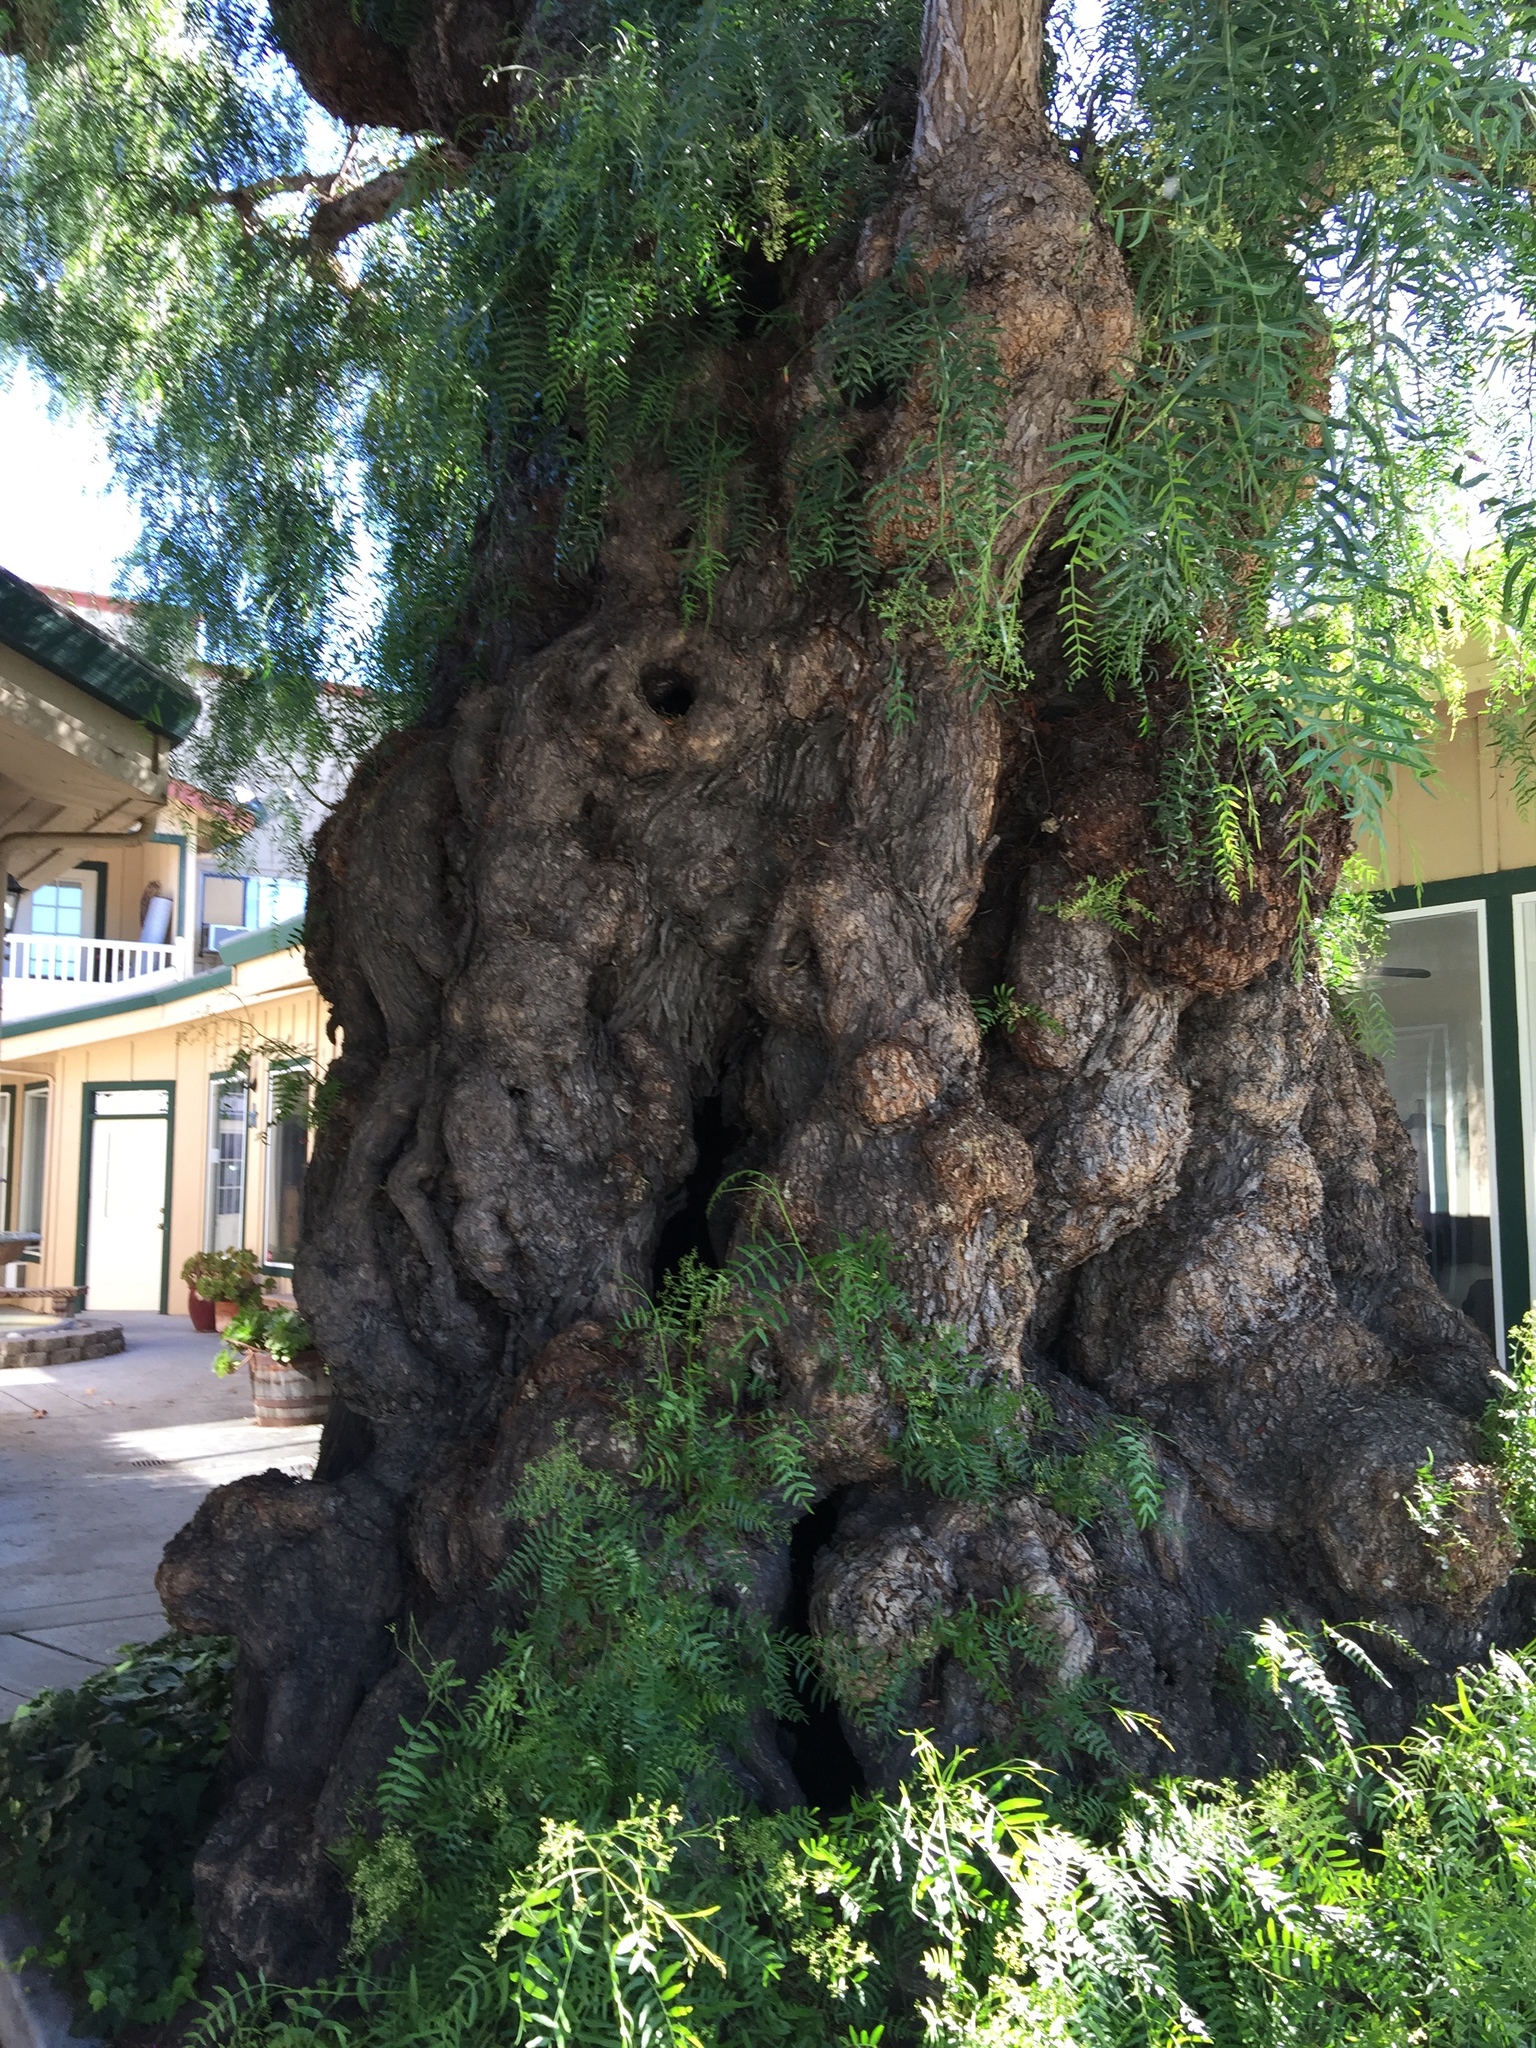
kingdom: Plantae
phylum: Tracheophyta
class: Magnoliopsida
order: Sapindales
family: Anacardiaceae
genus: Schinus
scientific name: Schinus molle
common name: Peruvian peppertree
